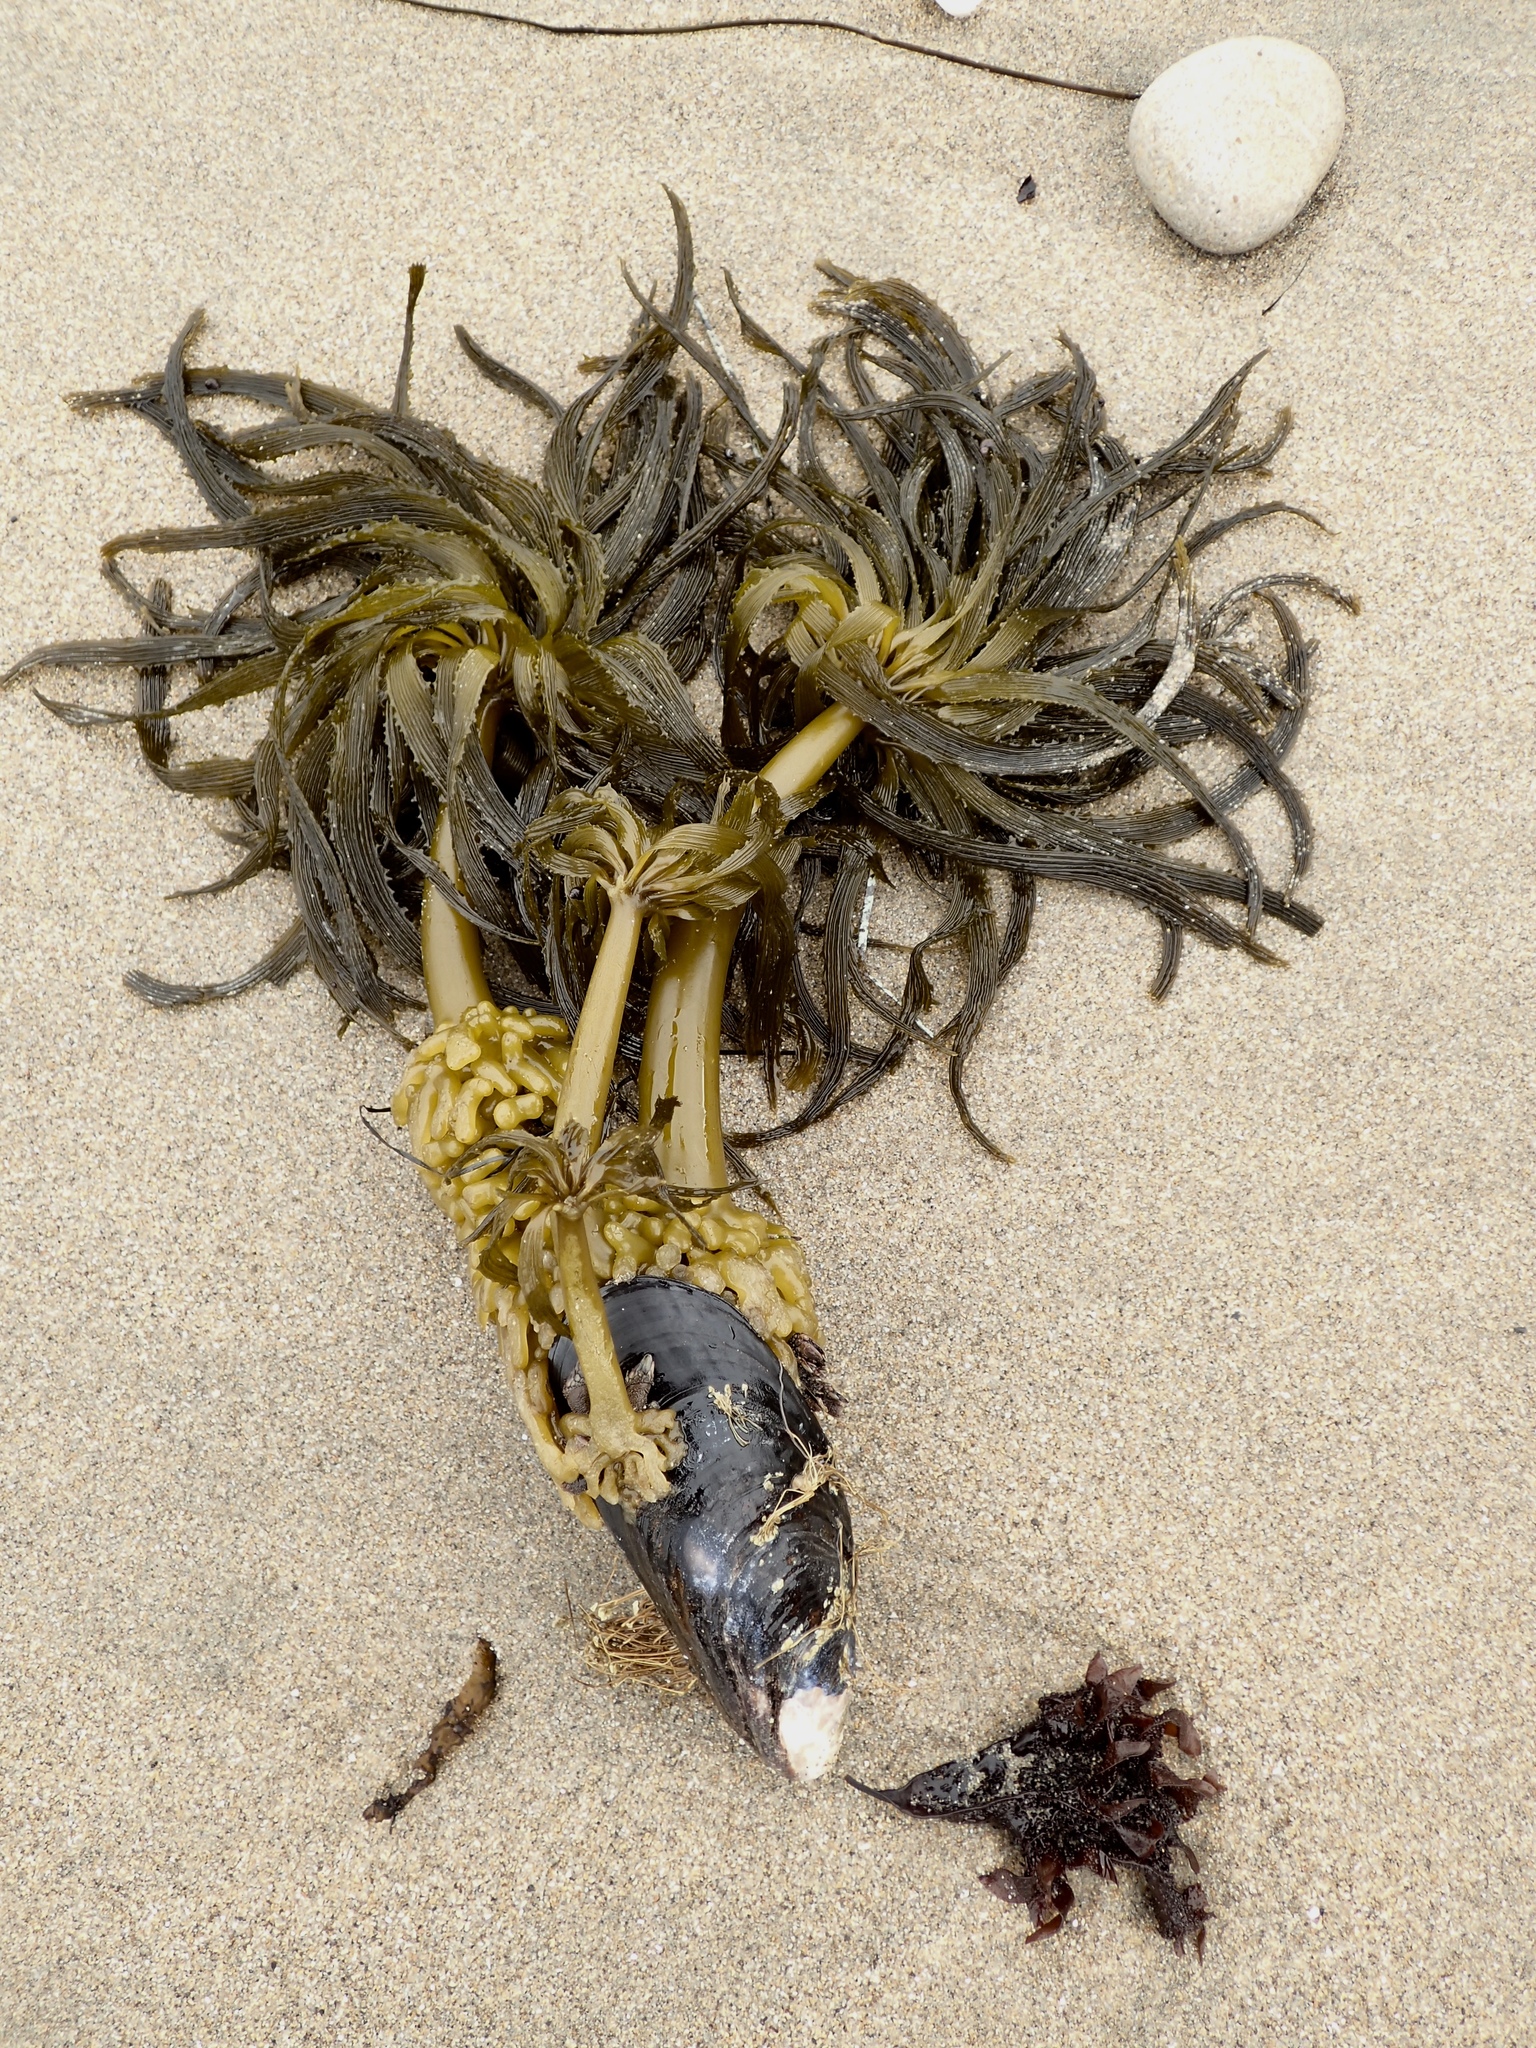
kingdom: Chromista
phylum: Ochrophyta
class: Phaeophyceae
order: Laminariales
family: Laminariaceae
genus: Postelsia
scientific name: Postelsia palmiformis
